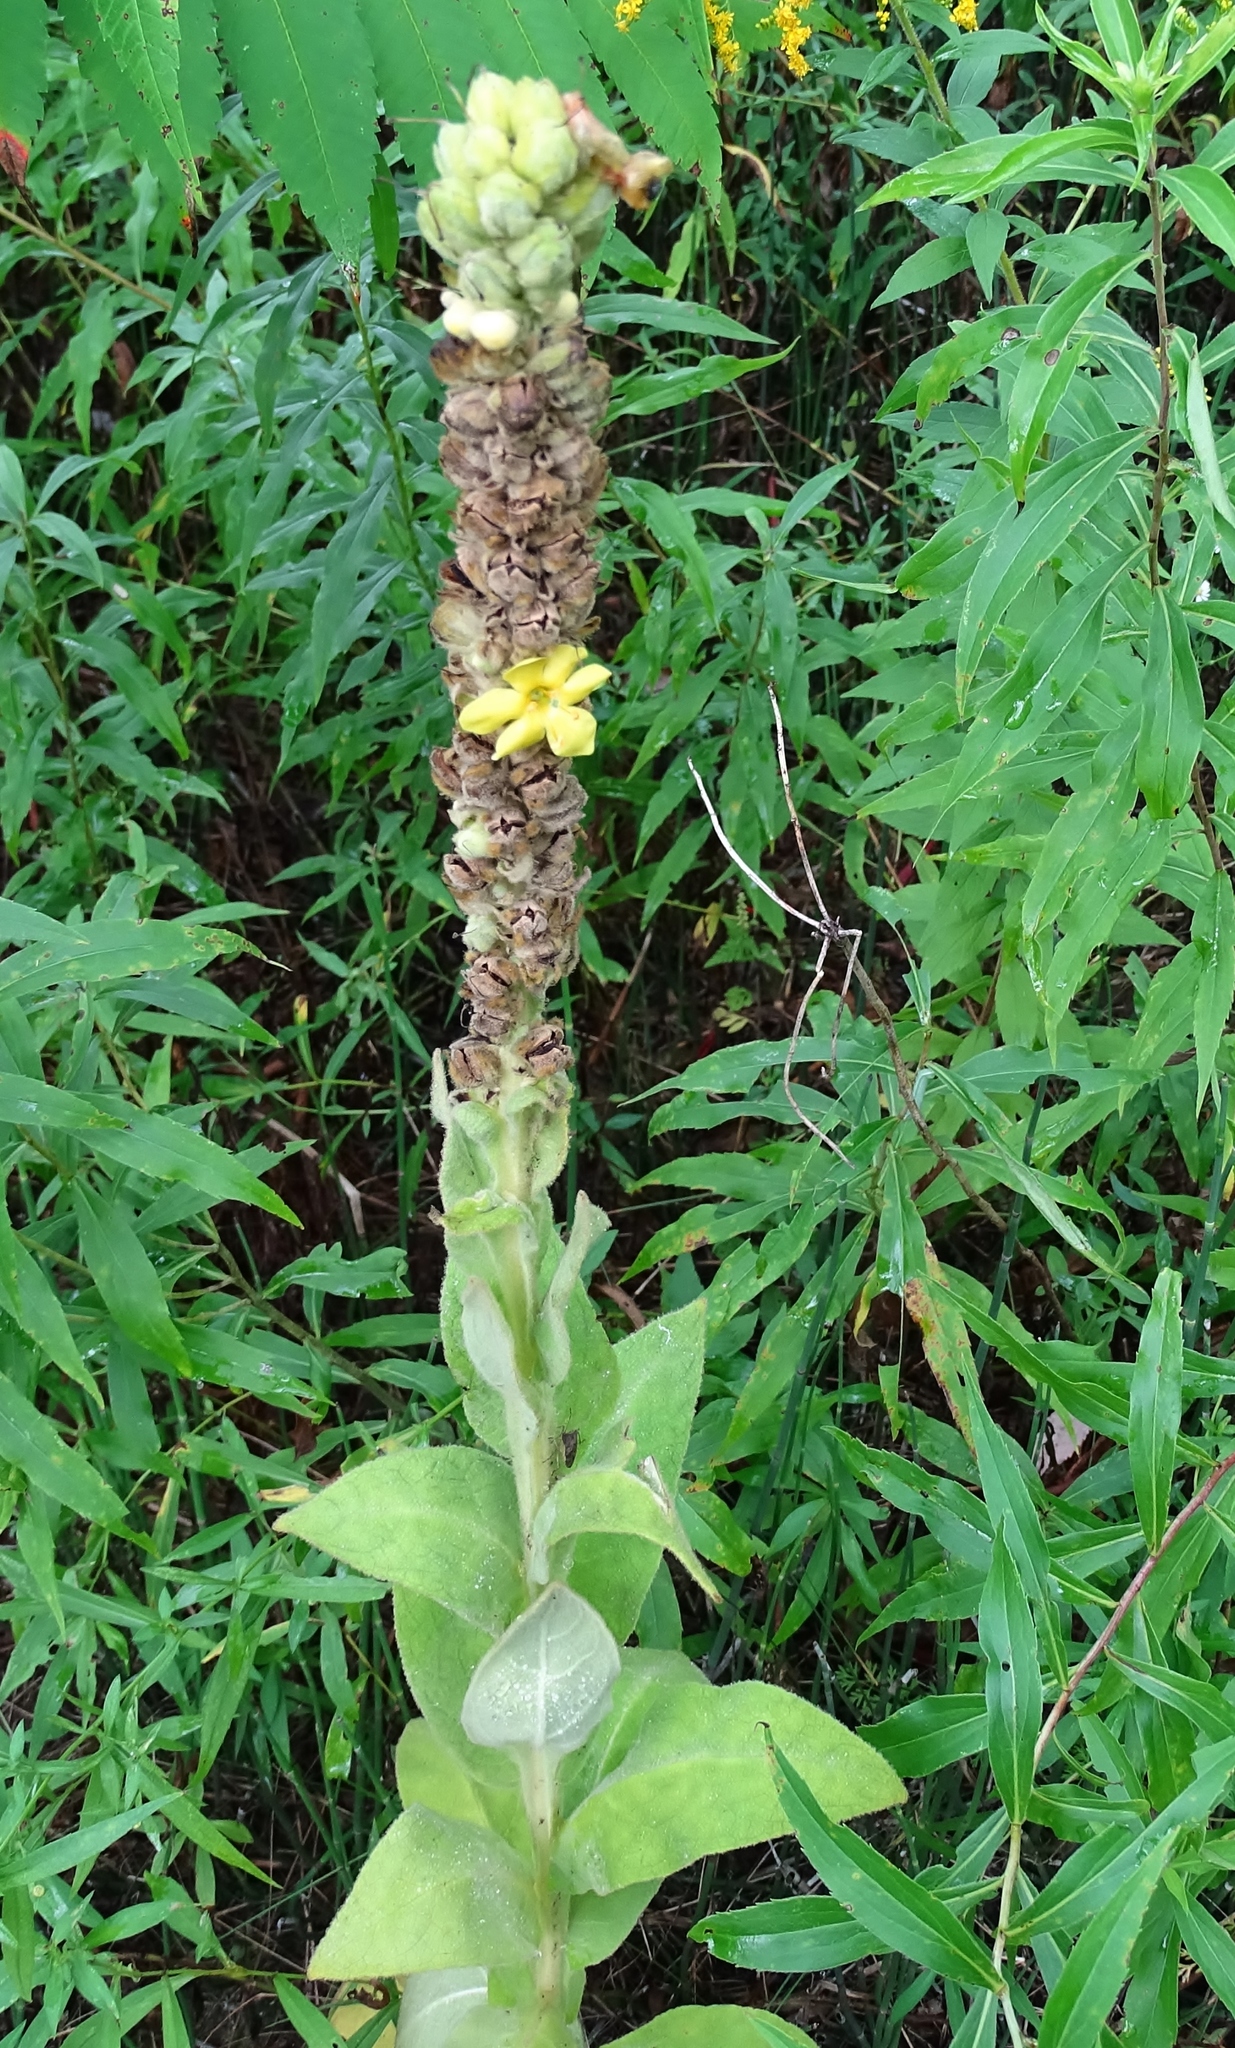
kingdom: Plantae
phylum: Tracheophyta
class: Magnoliopsida
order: Lamiales
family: Scrophulariaceae
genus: Verbascum
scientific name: Verbascum thapsus
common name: Common mullein
